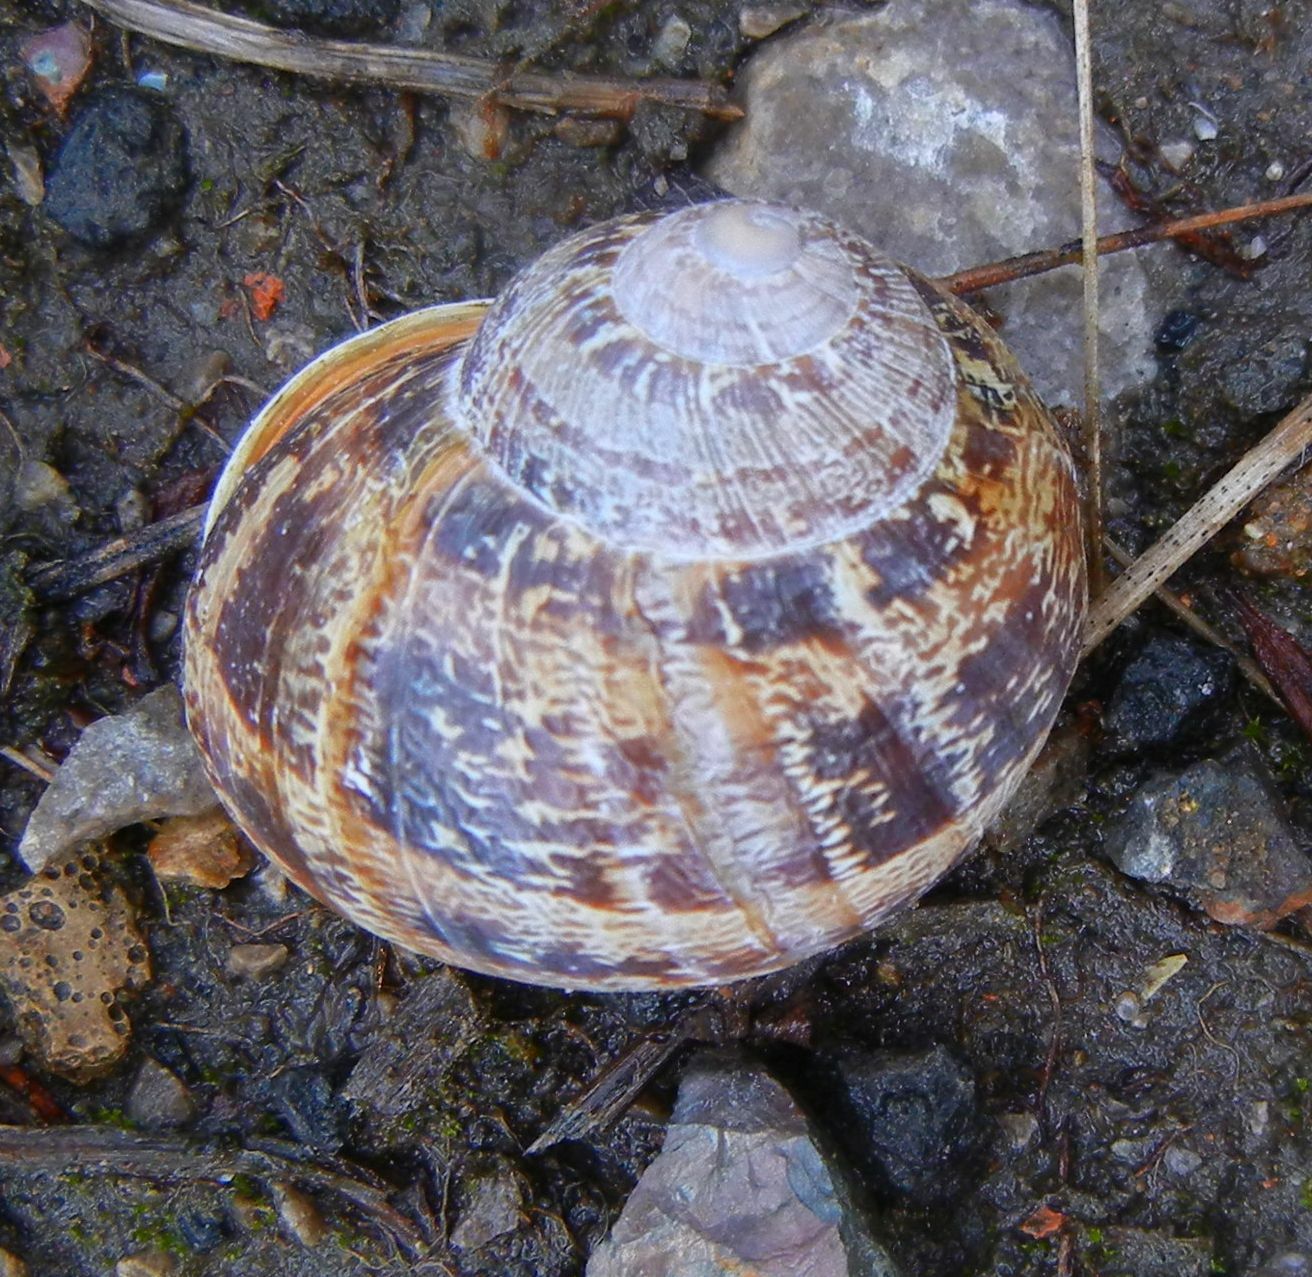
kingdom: Animalia
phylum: Mollusca
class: Gastropoda
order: Stylommatophora
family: Helicidae
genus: Cornu
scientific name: Cornu aspersum
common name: Brown garden snail
